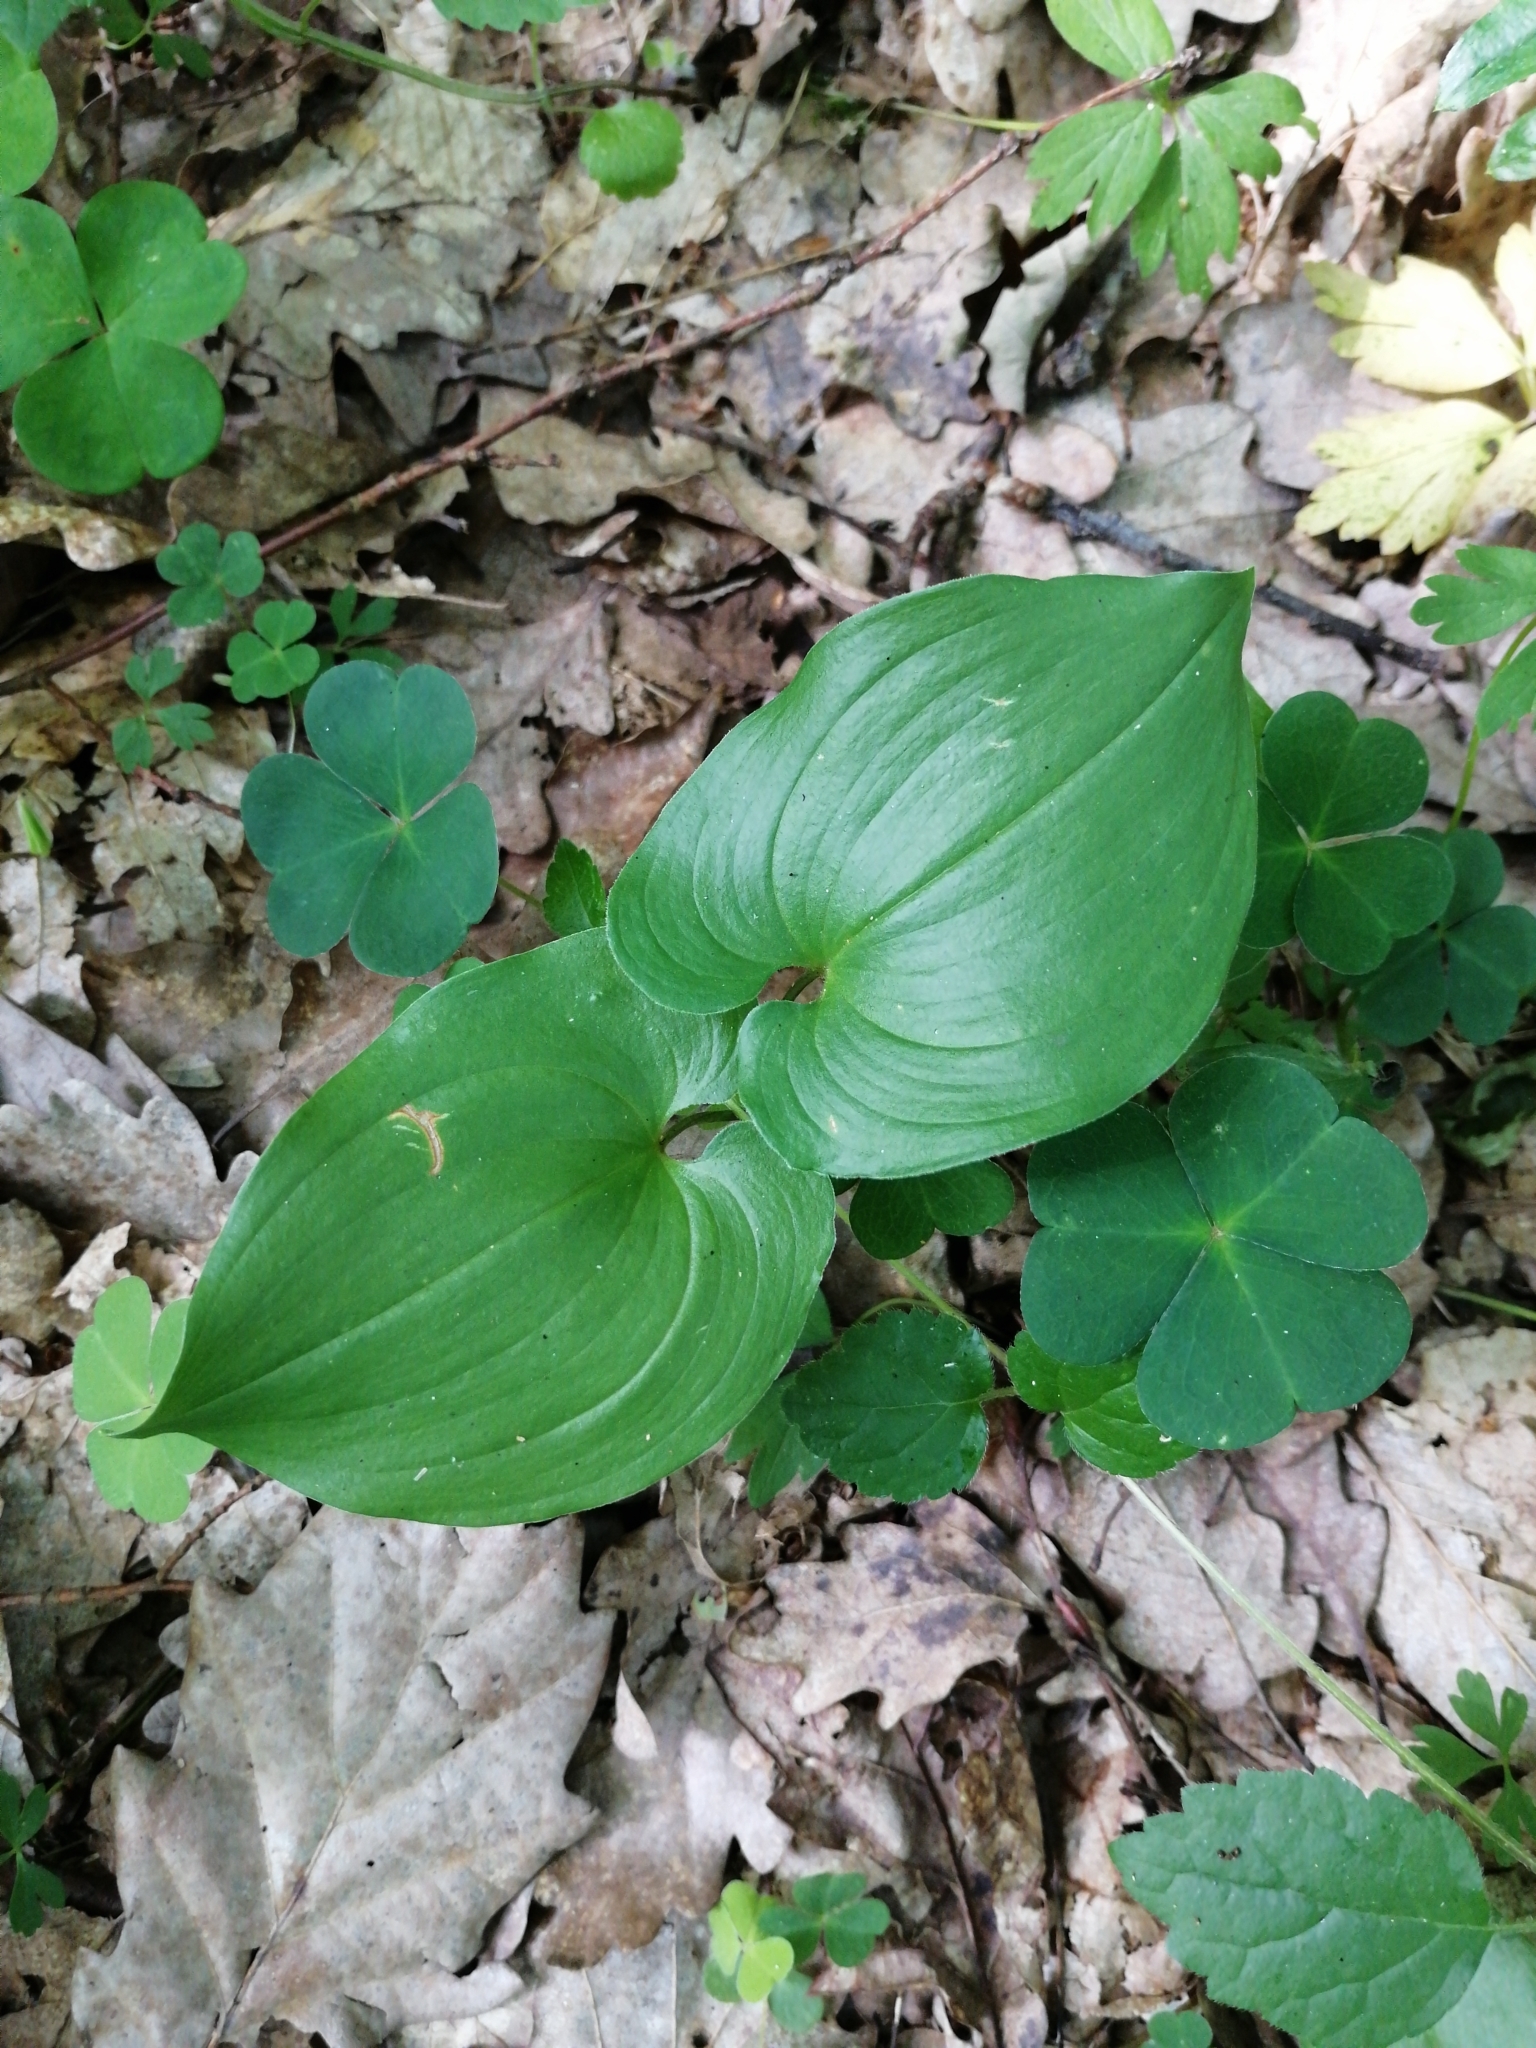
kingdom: Plantae
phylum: Tracheophyta
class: Liliopsida
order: Asparagales
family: Asparagaceae
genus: Maianthemum
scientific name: Maianthemum bifolium
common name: May lily
